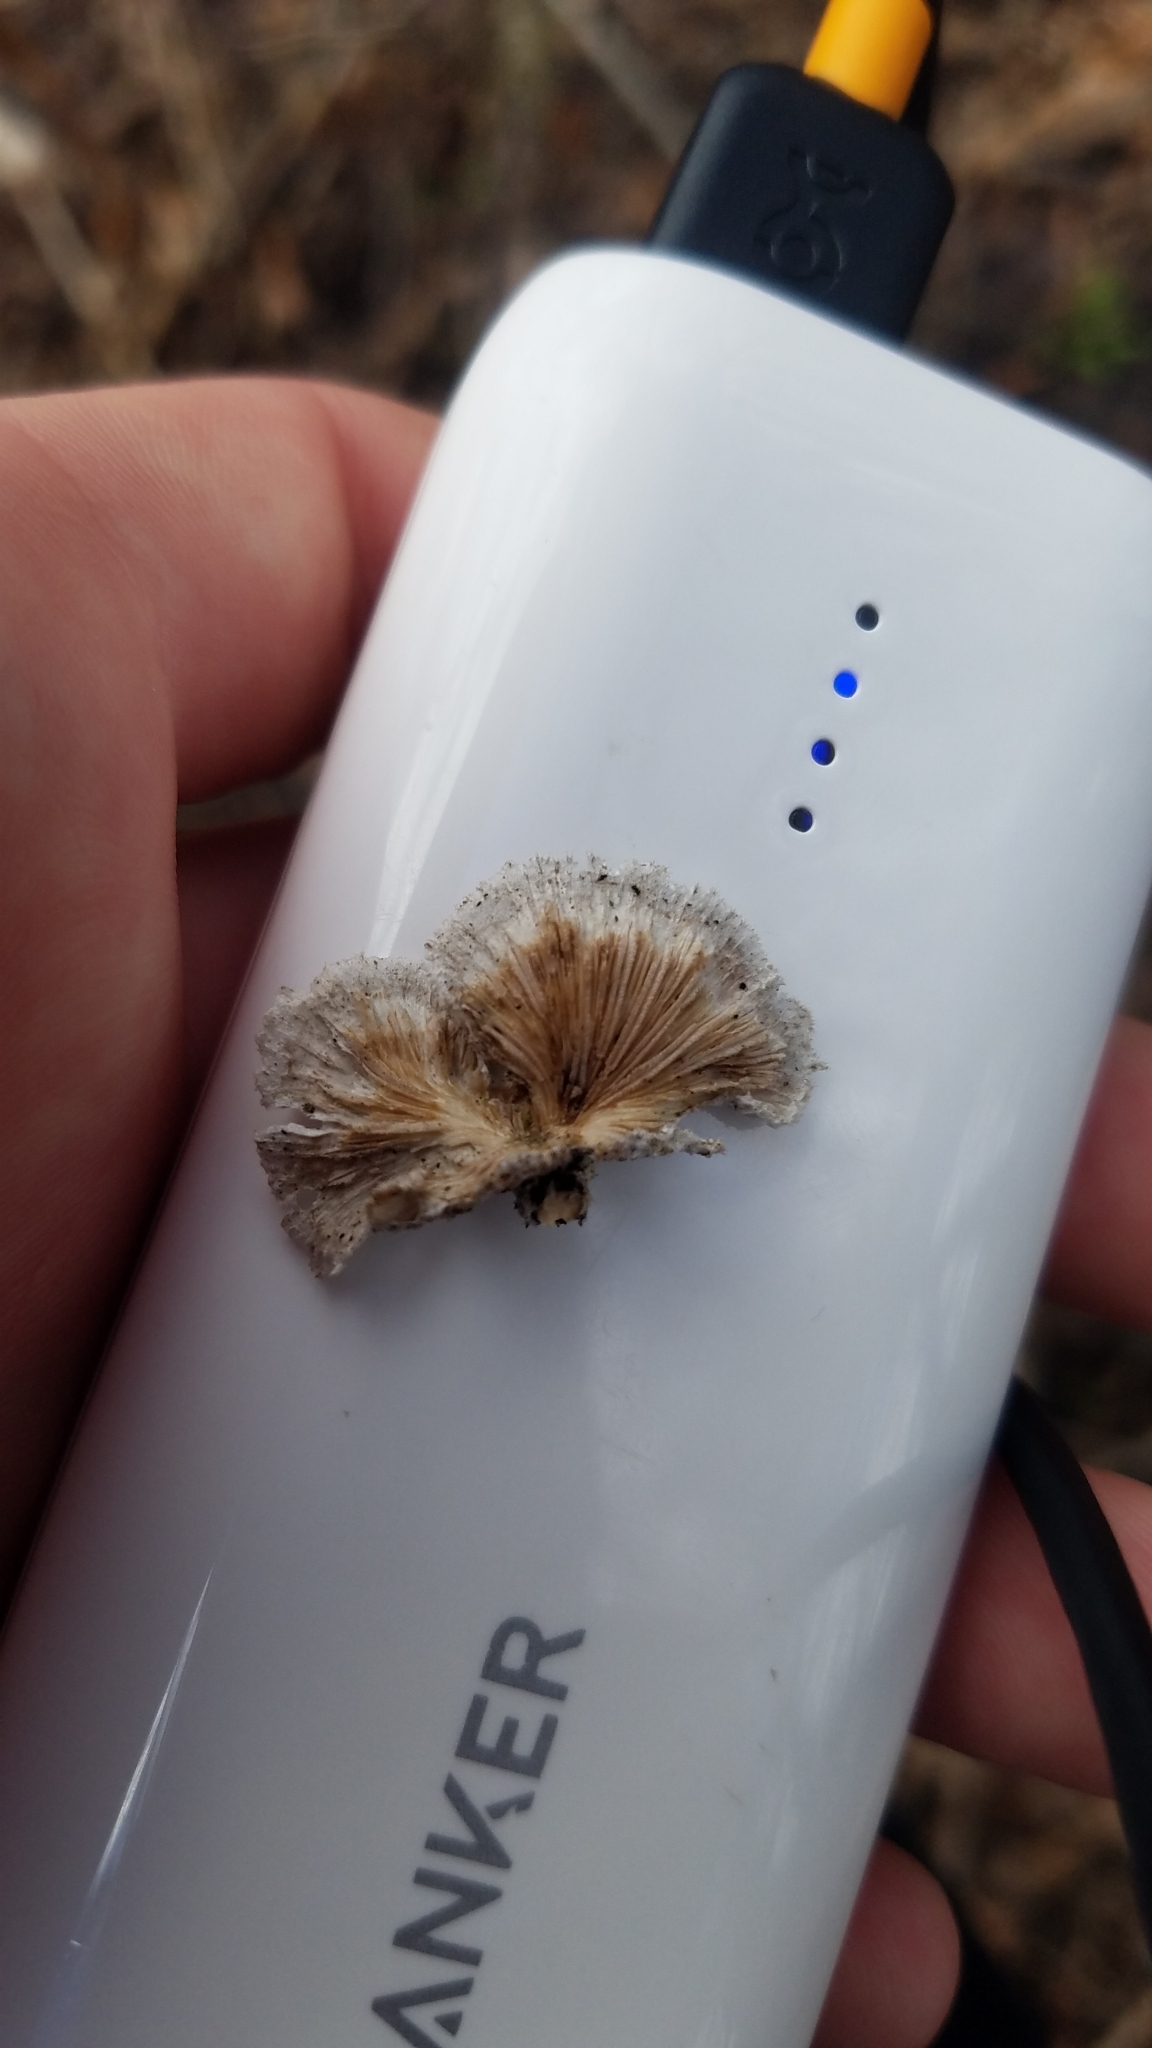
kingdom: Fungi
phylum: Basidiomycota
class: Agaricomycetes
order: Agaricales
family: Schizophyllaceae
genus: Schizophyllum
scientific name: Schizophyllum commune
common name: Common porecrust
